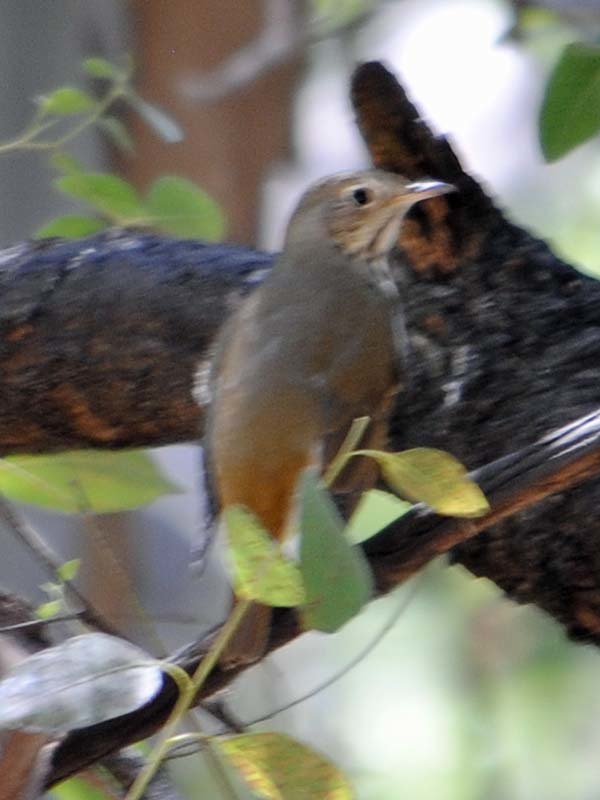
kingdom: Animalia
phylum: Chordata
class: Aves
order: Passeriformes
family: Turdidae
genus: Catharus
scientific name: Catharus guttatus
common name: Hermit thrush
